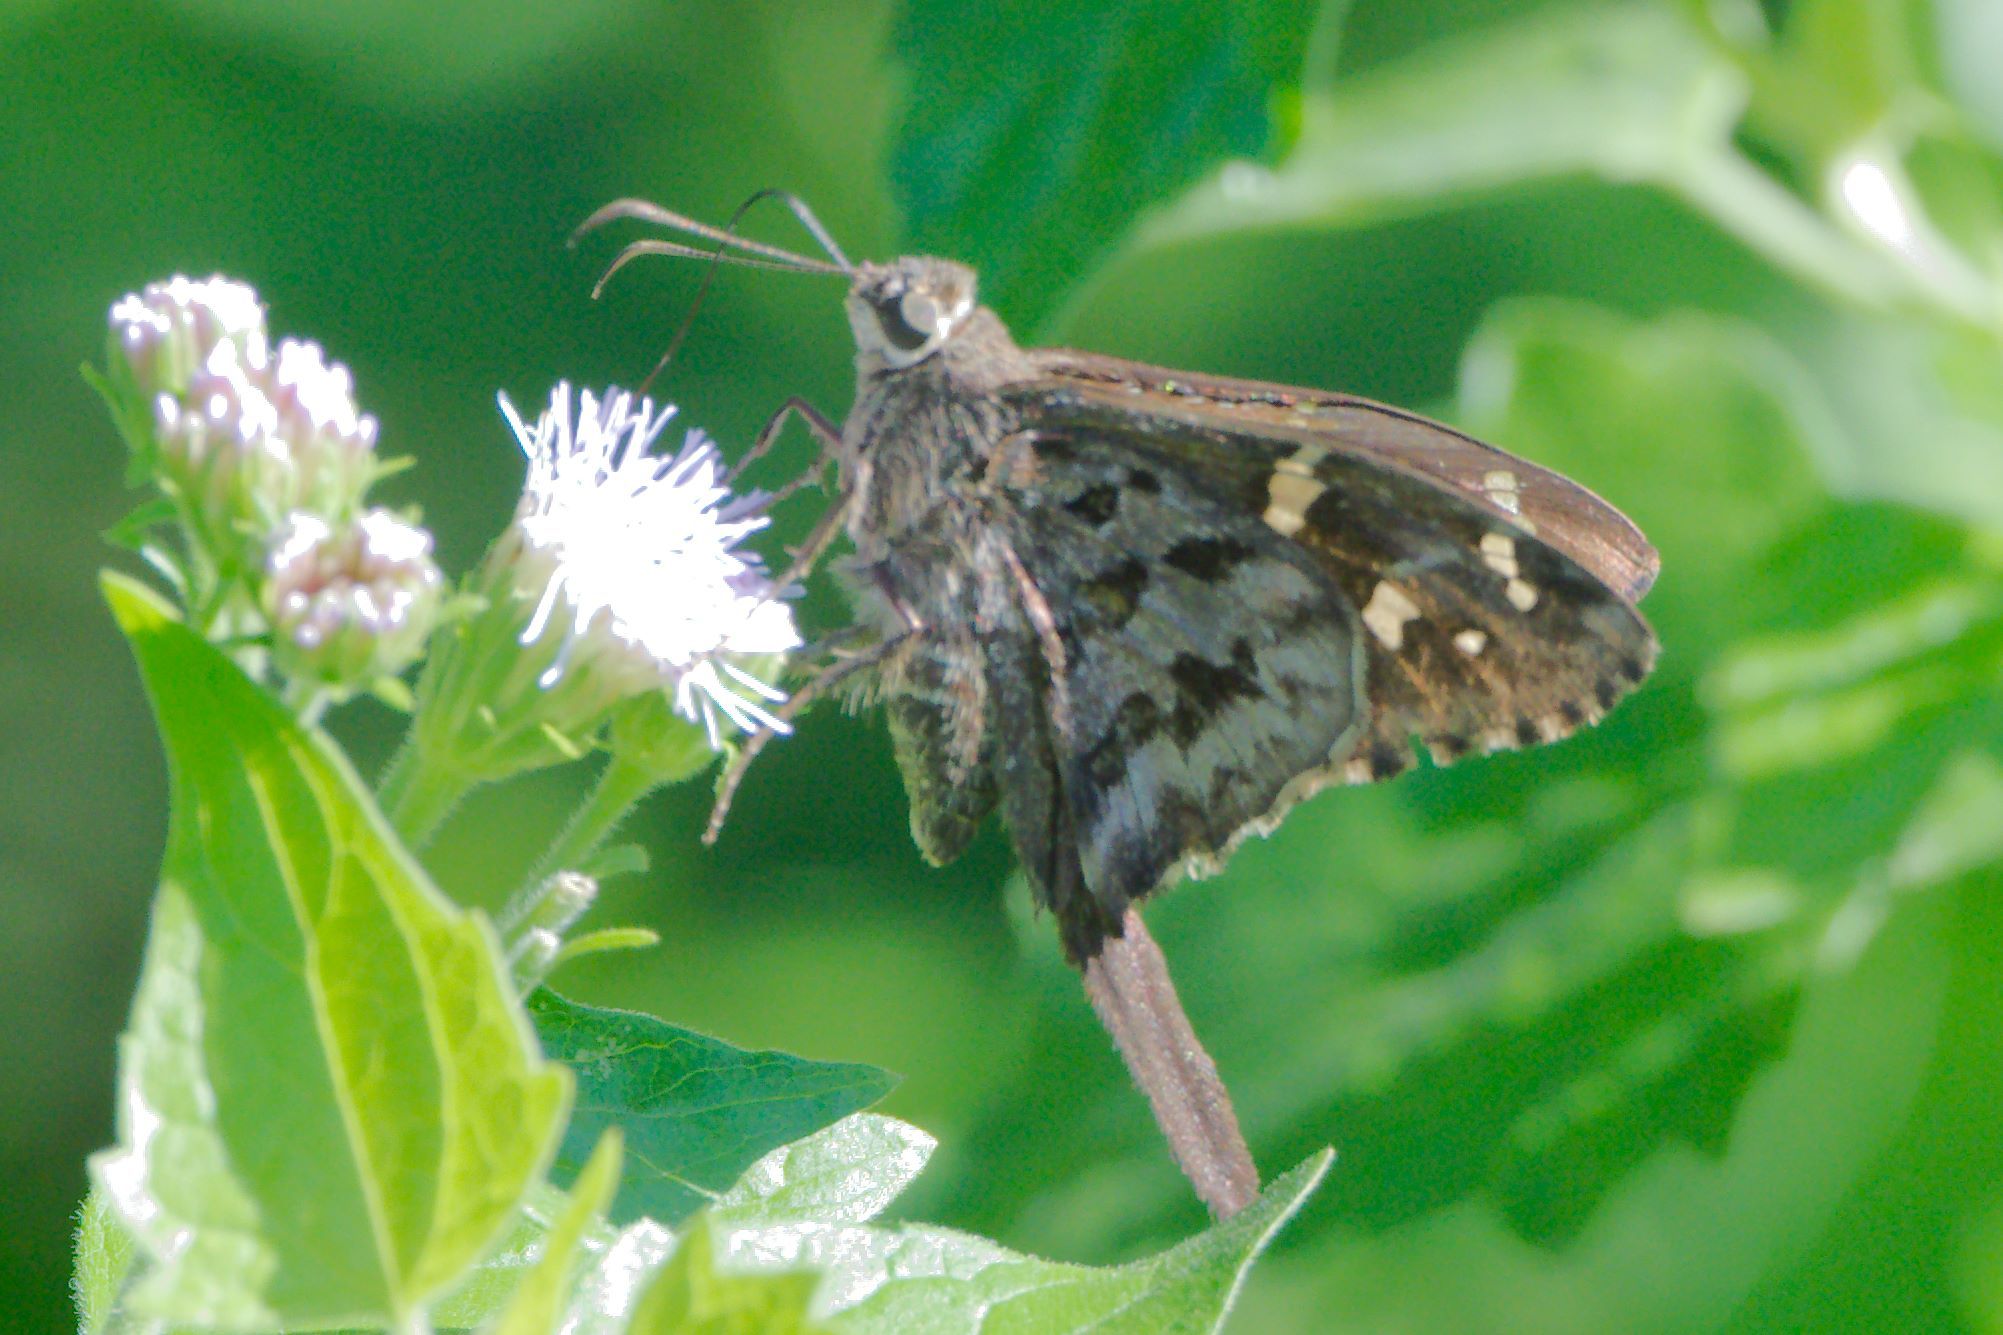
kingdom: Animalia
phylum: Arthropoda
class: Insecta
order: Lepidoptera
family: Hesperiidae
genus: Thorybes
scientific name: Thorybes
